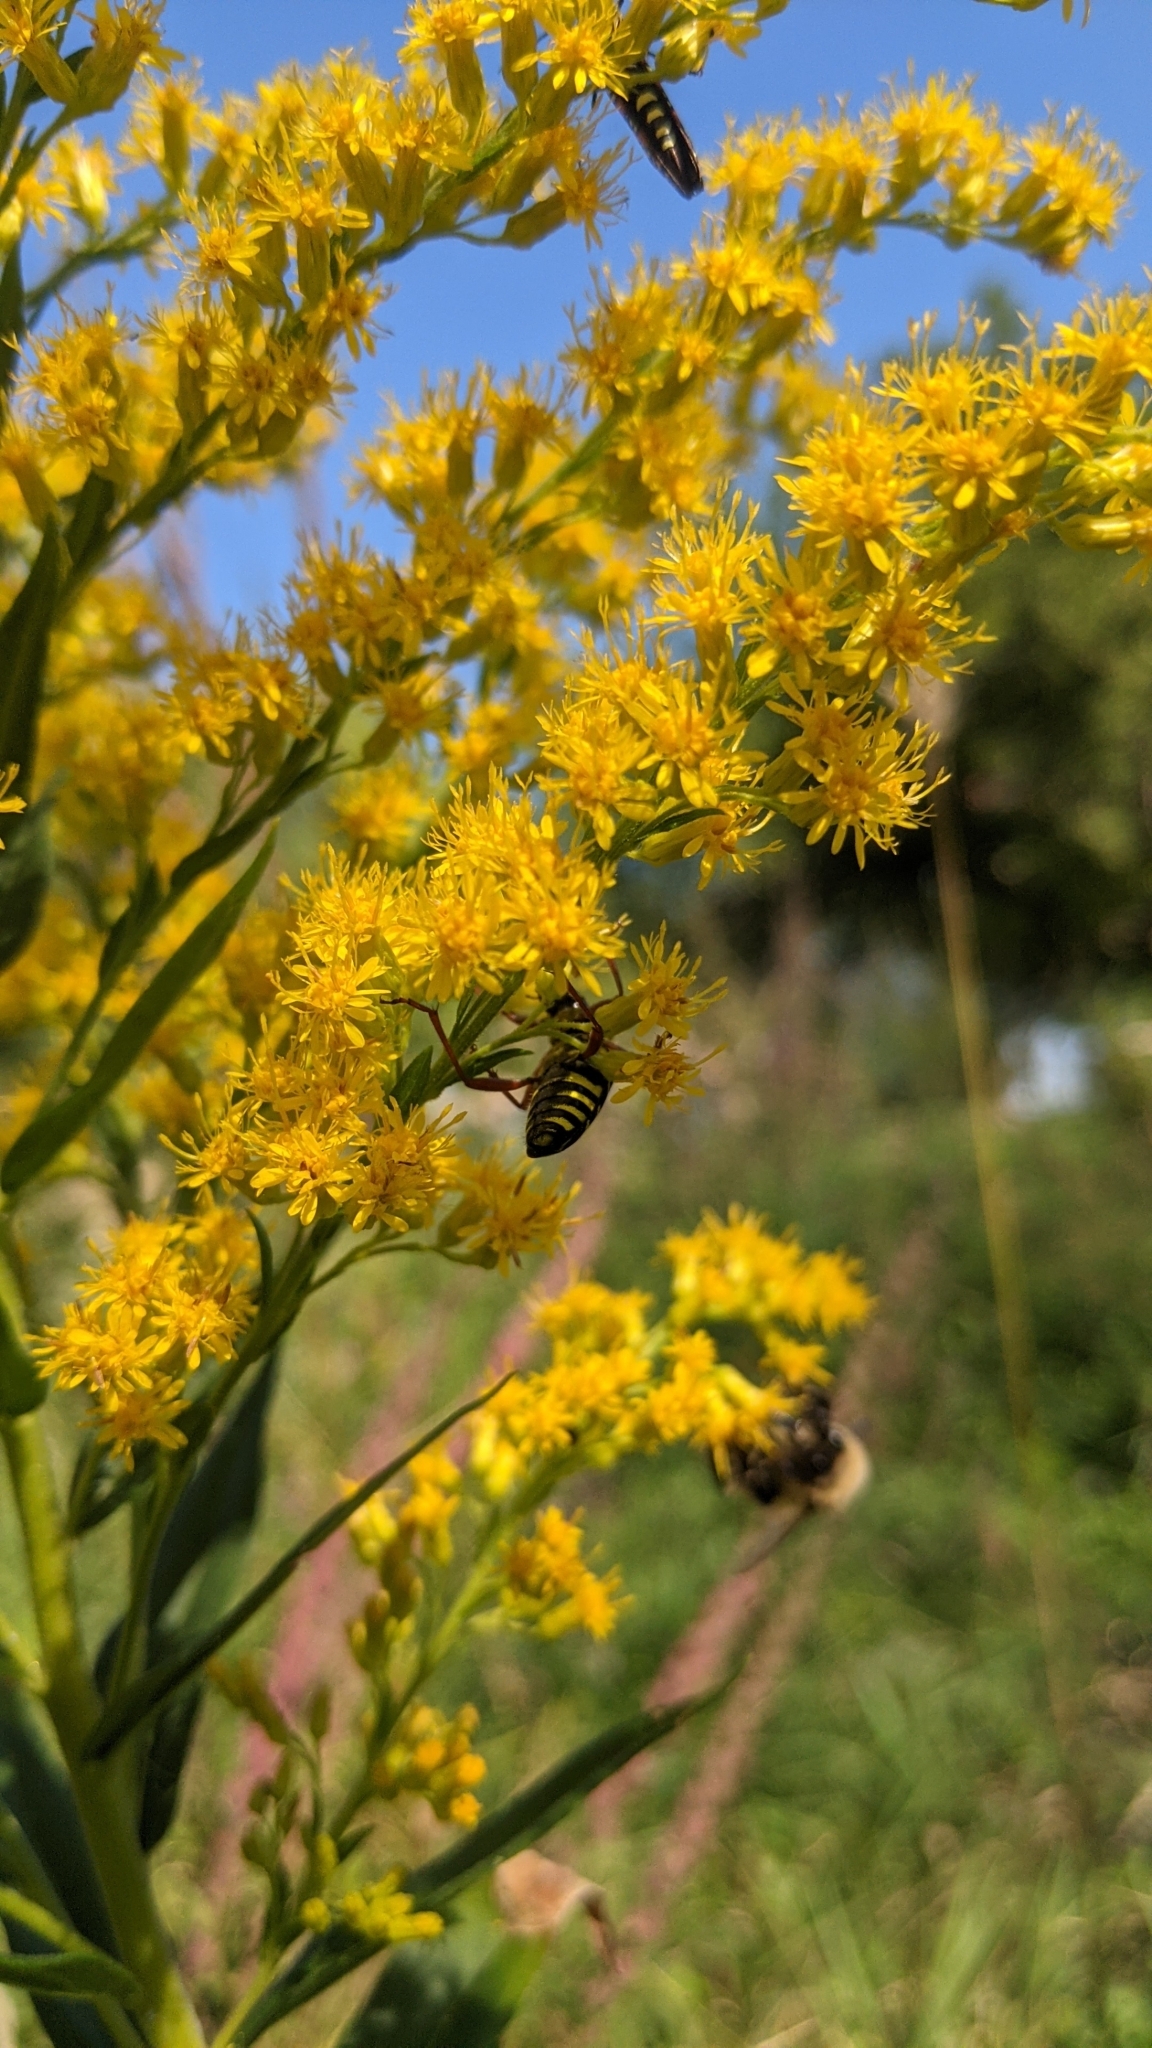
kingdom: Animalia
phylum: Arthropoda
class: Insecta
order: Coleoptera
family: Cerambycidae
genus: Megacyllene
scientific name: Megacyllene robiniae
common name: Locust borer
